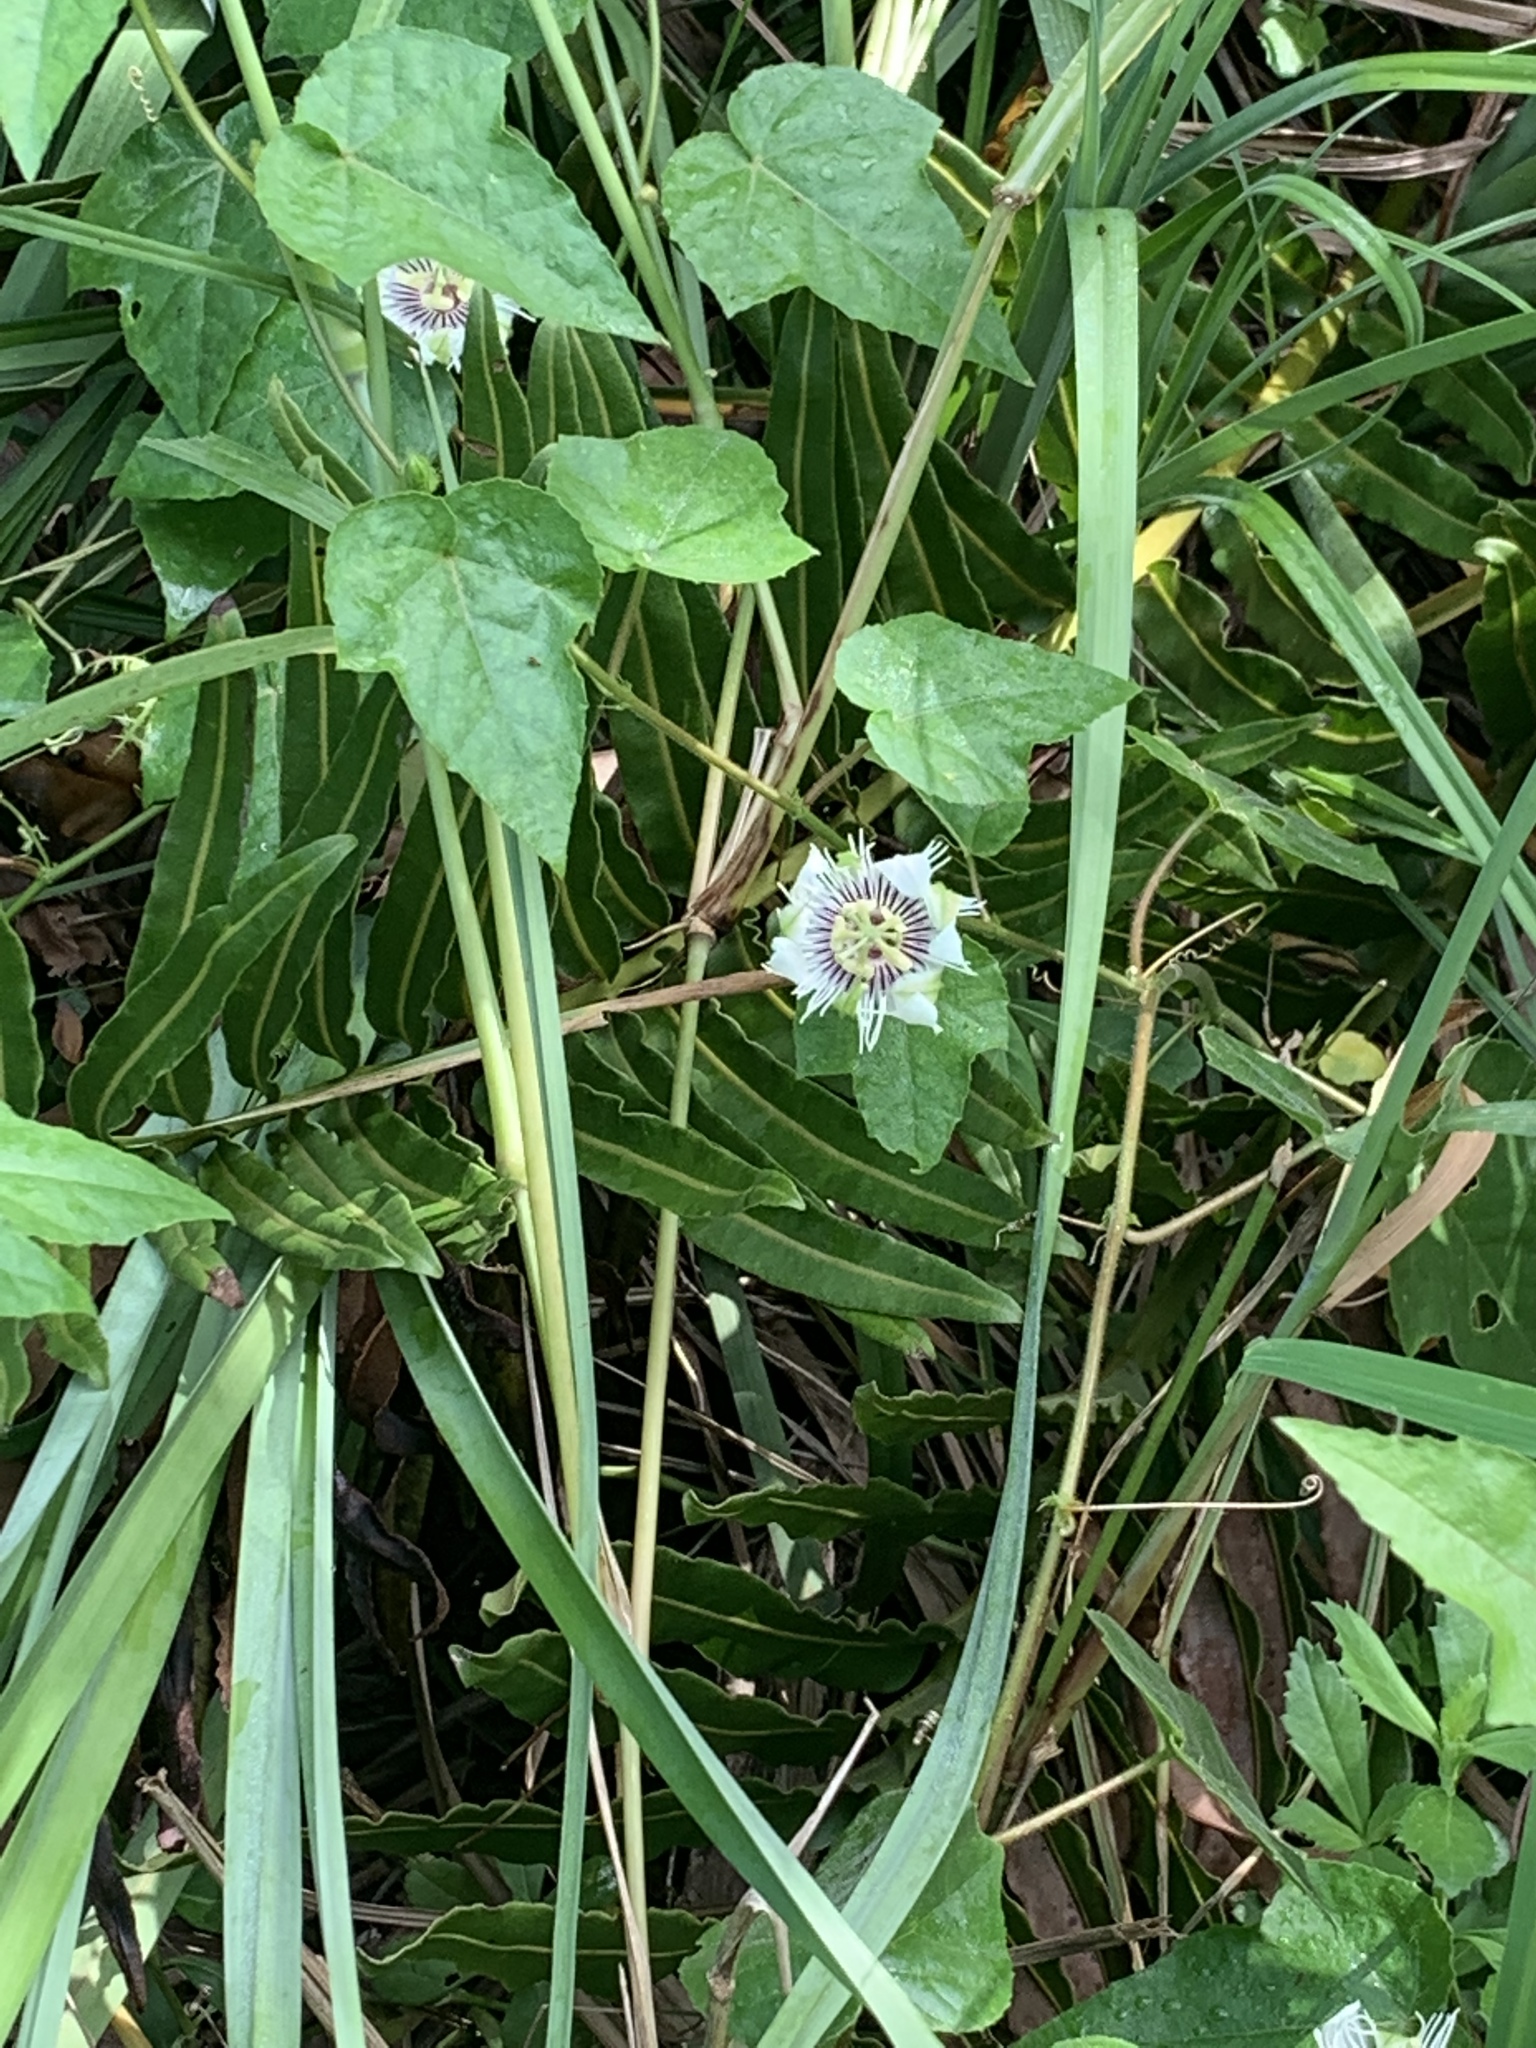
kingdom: Plantae
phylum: Tracheophyta
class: Magnoliopsida
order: Malpighiales
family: Passifloraceae
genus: Passiflora
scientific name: Passiflora foetida
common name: Fetid passionflower
